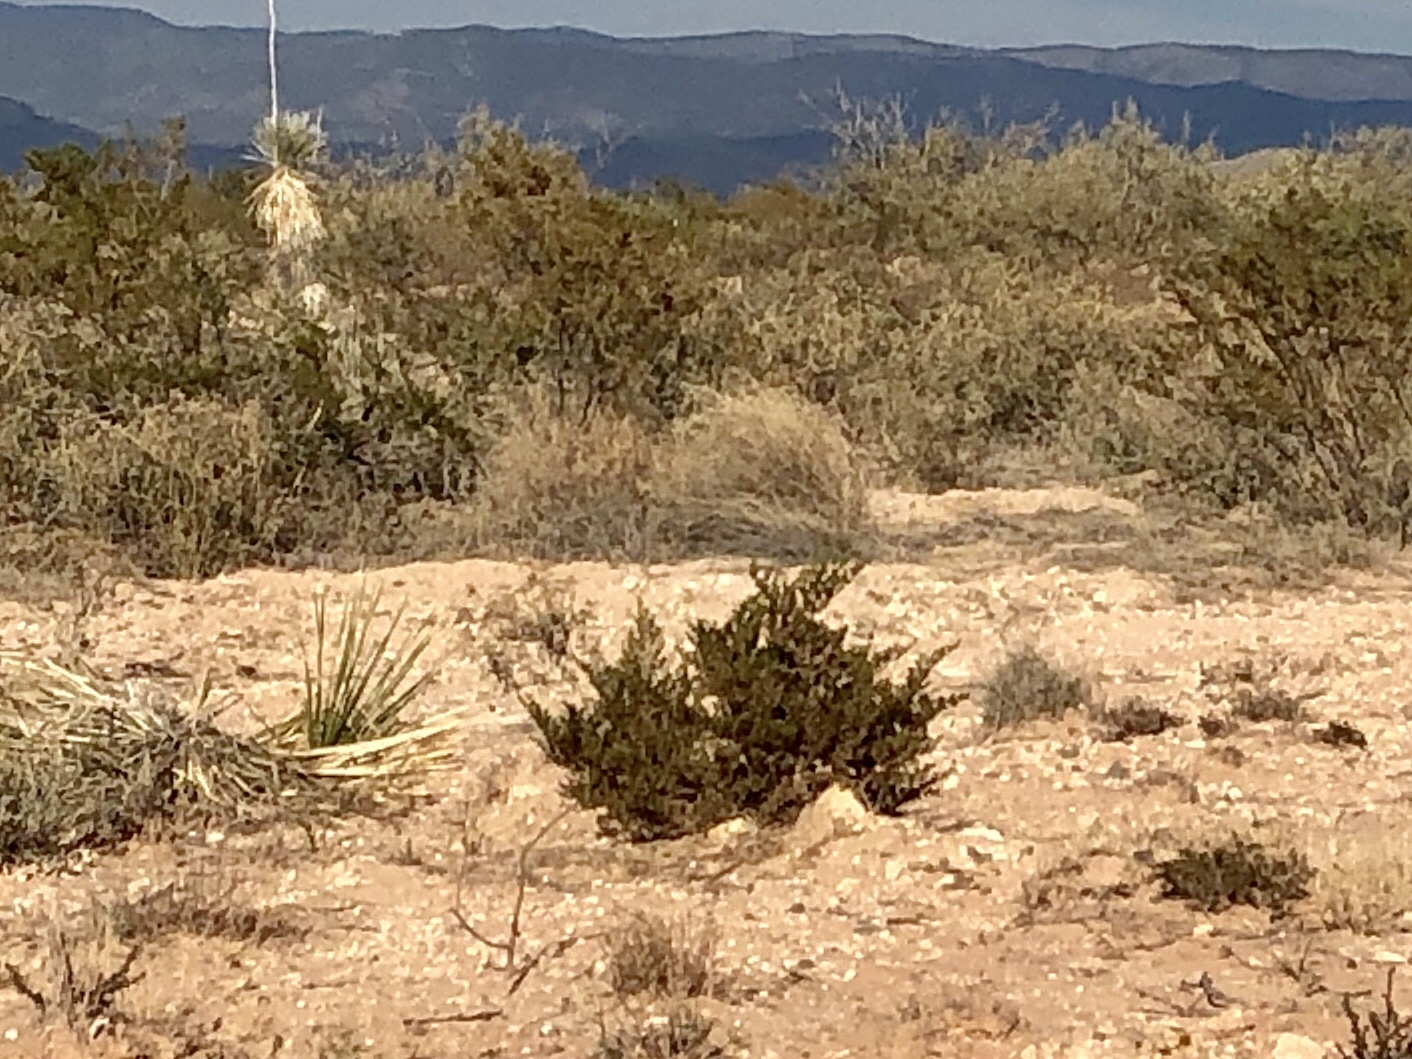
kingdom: Plantae
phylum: Tracheophyta
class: Magnoliopsida
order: Zygophyllales
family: Zygophyllaceae
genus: Larrea
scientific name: Larrea tridentata
